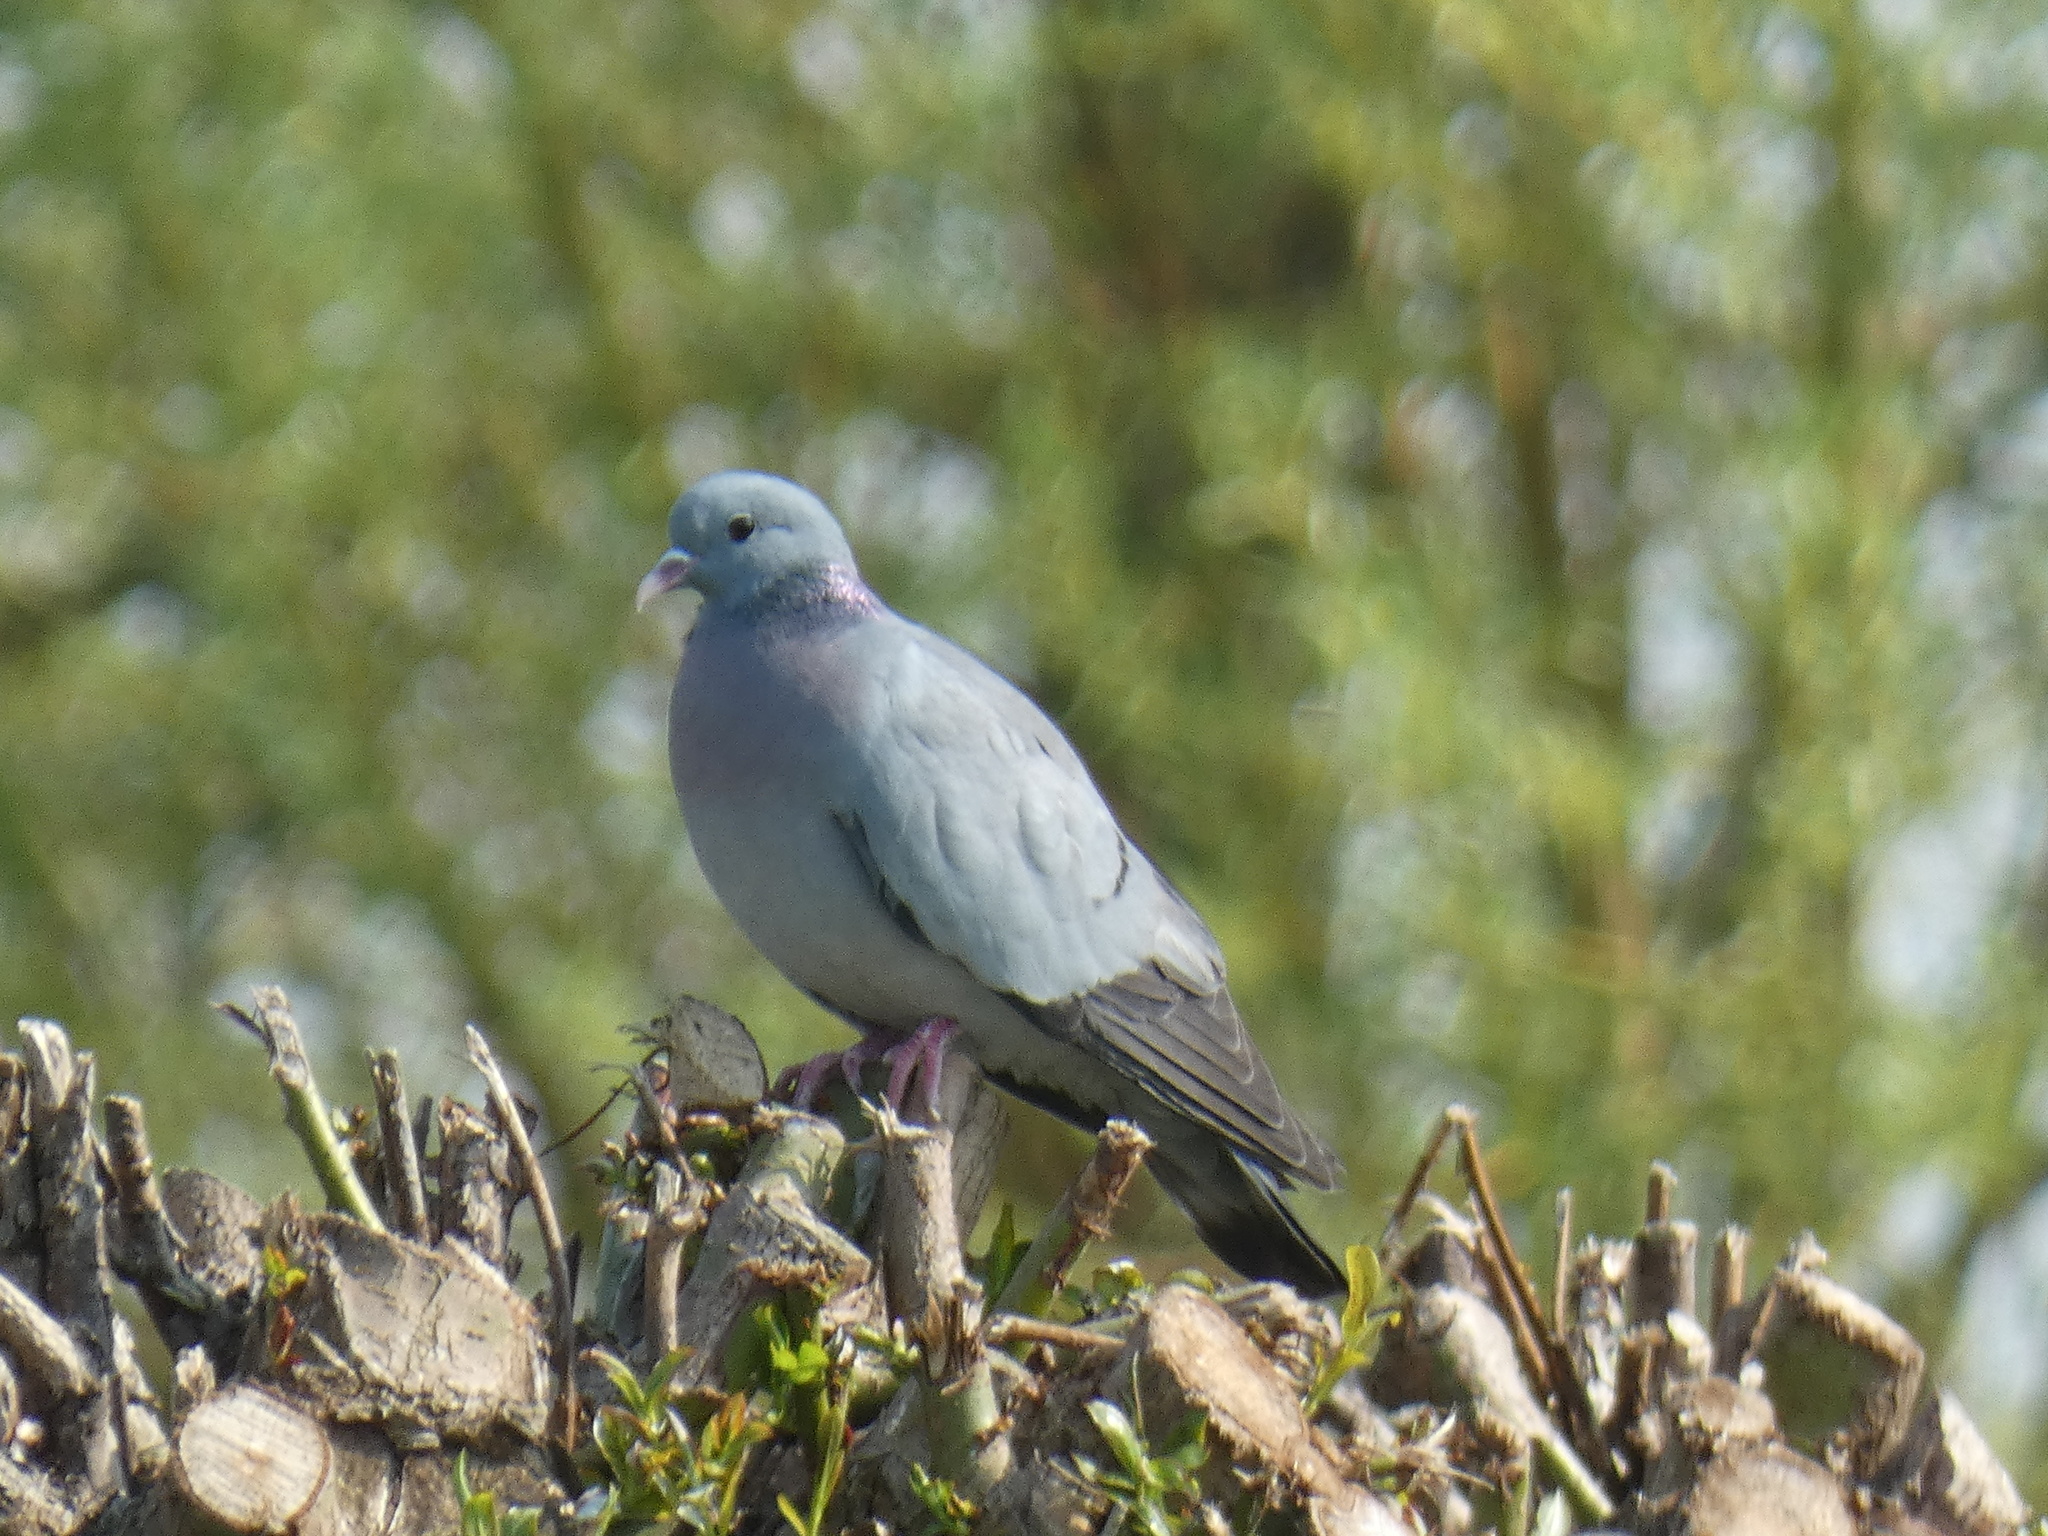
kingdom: Animalia
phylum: Chordata
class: Aves
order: Columbiformes
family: Columbidae
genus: Columba
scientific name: Columba oenas
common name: Stock dove
